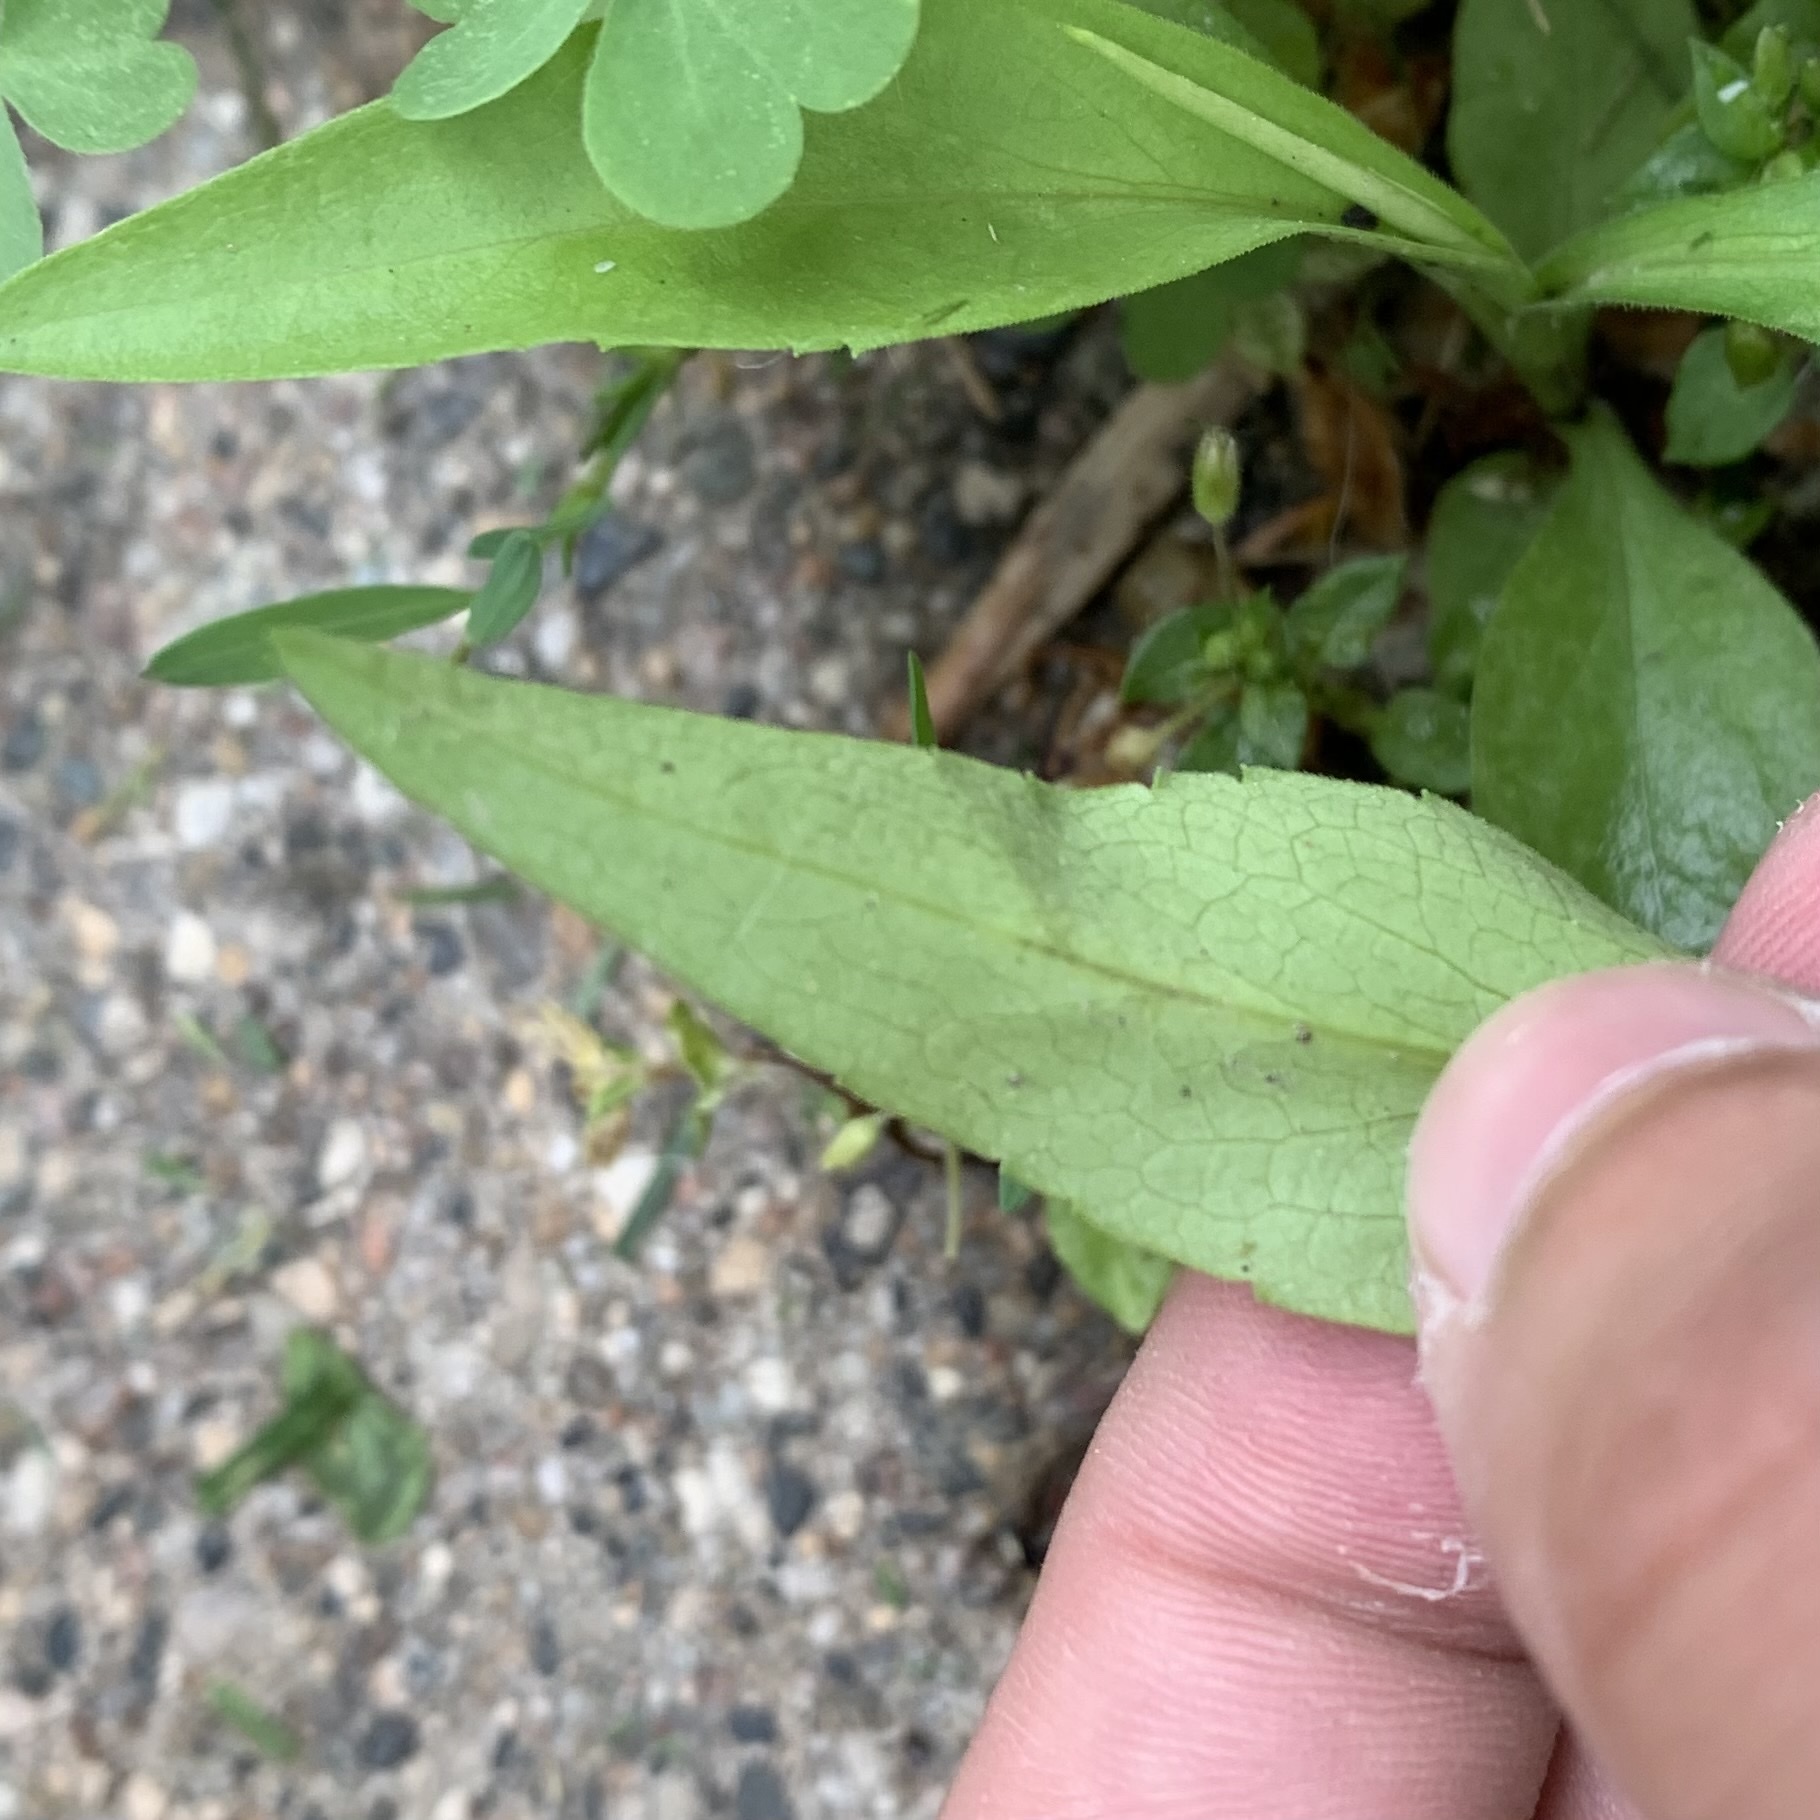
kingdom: Animalia
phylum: Arthropoda
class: Insecta
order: Diptera
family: Agromyzidae
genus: Calycomyza
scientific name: Calycomyza promissa
